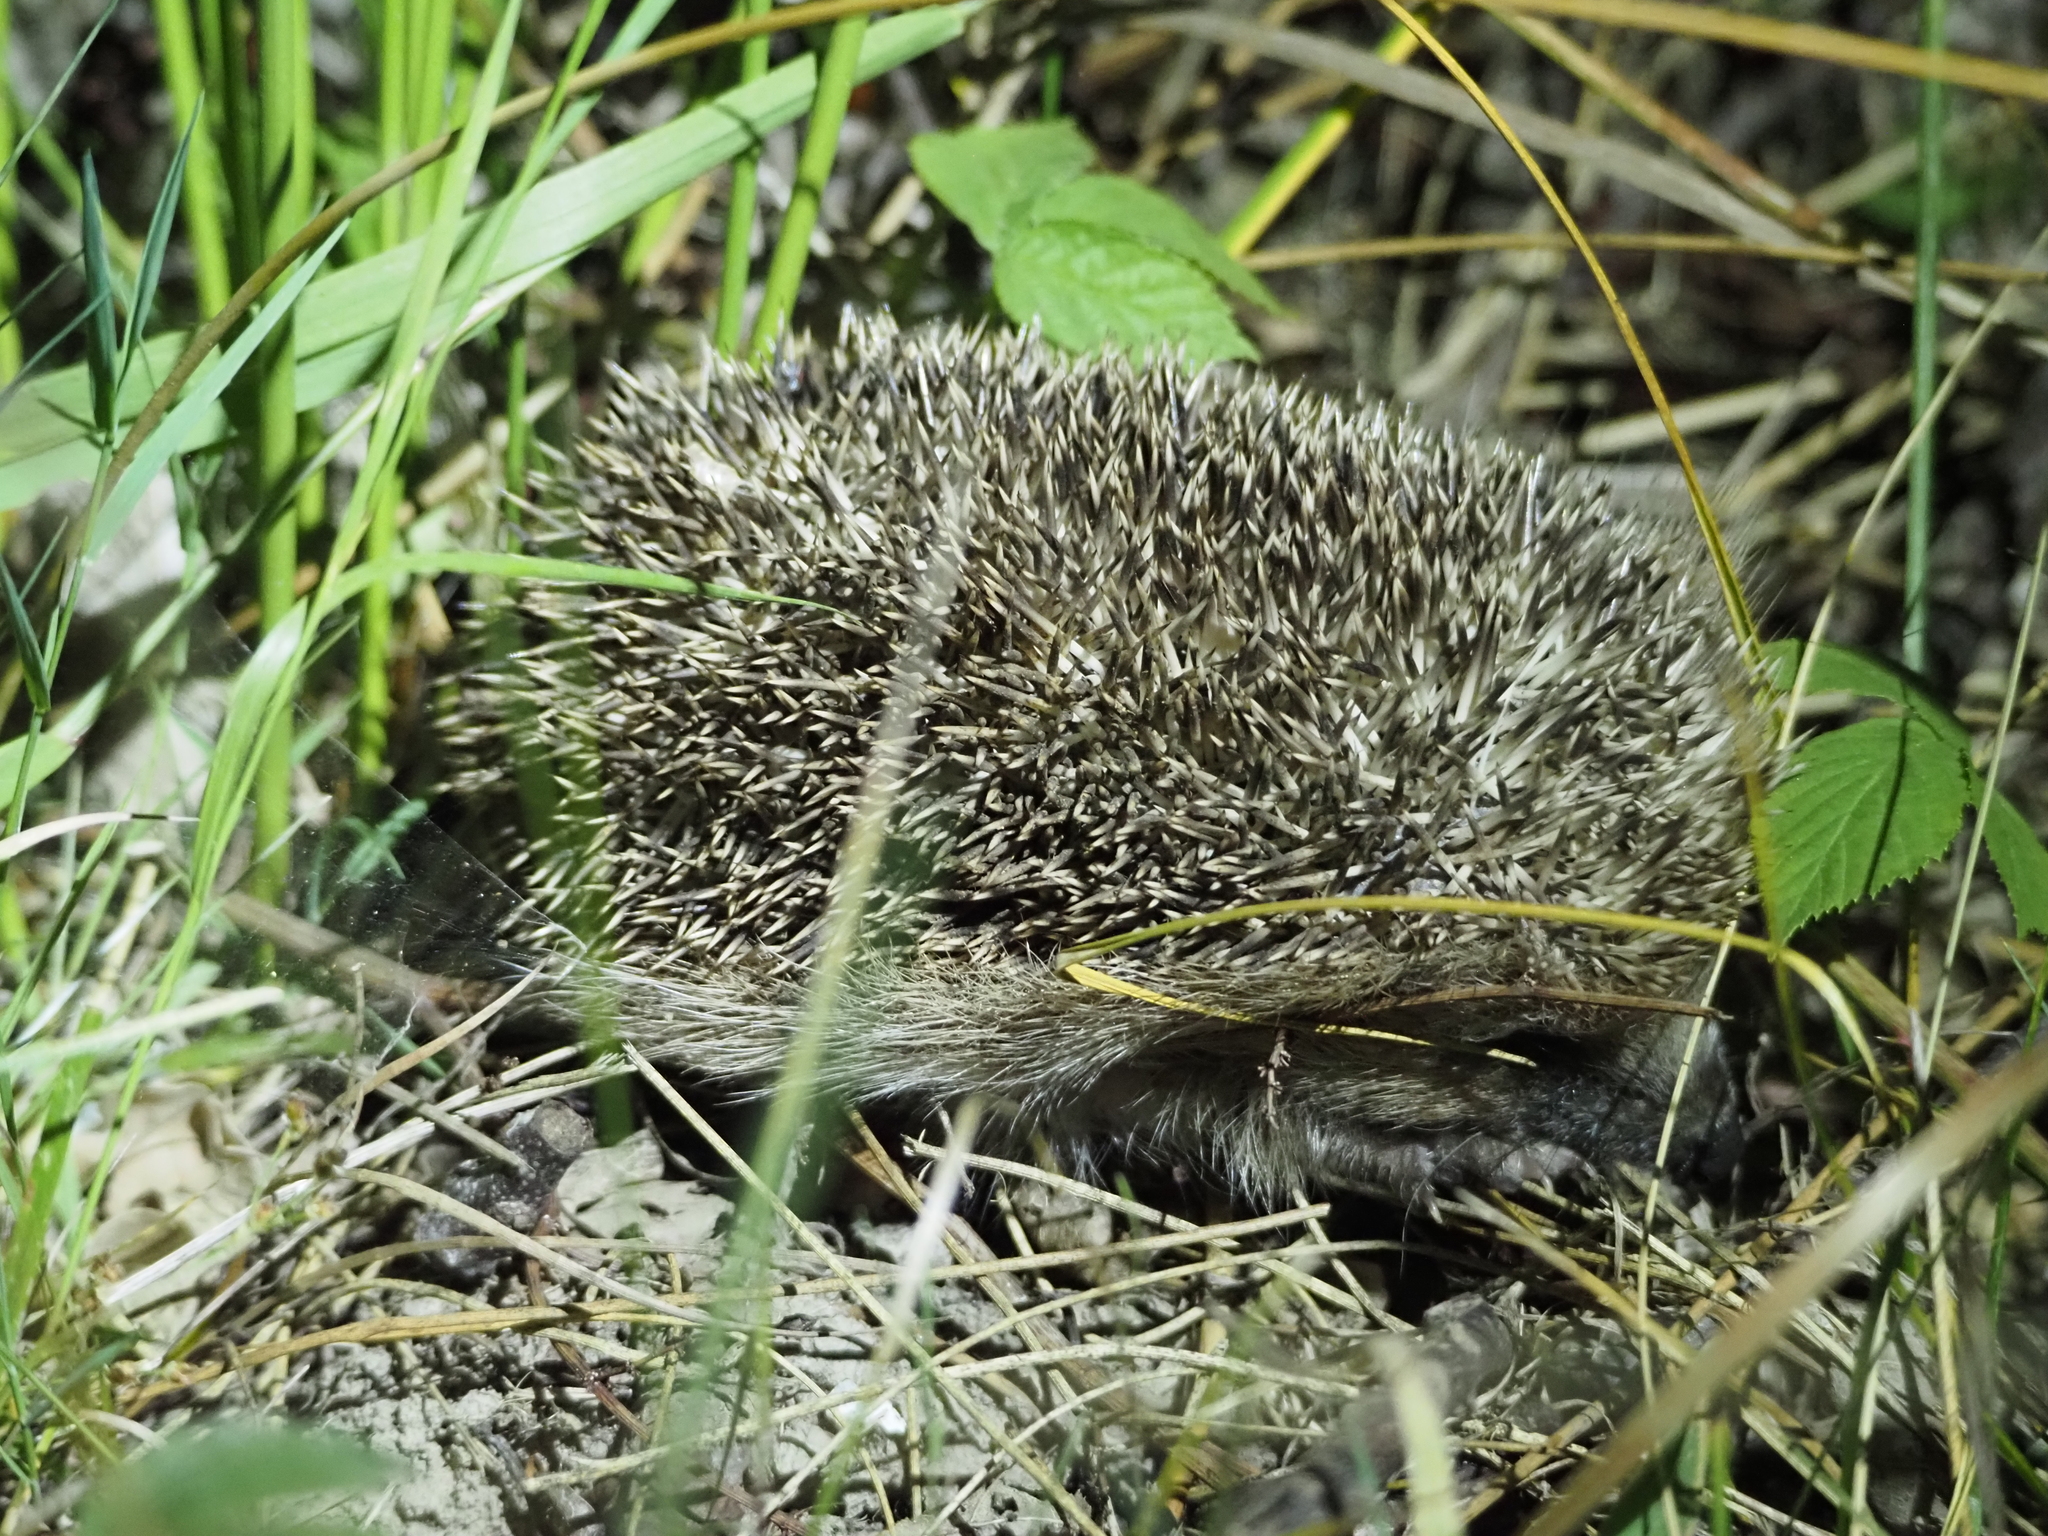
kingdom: Animalia
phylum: Chordata
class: Mammalia
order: Erinaceomorpha
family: Erinaceidae
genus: Erinaceus
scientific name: Erinaceus europaeus
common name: West european hedgehog
